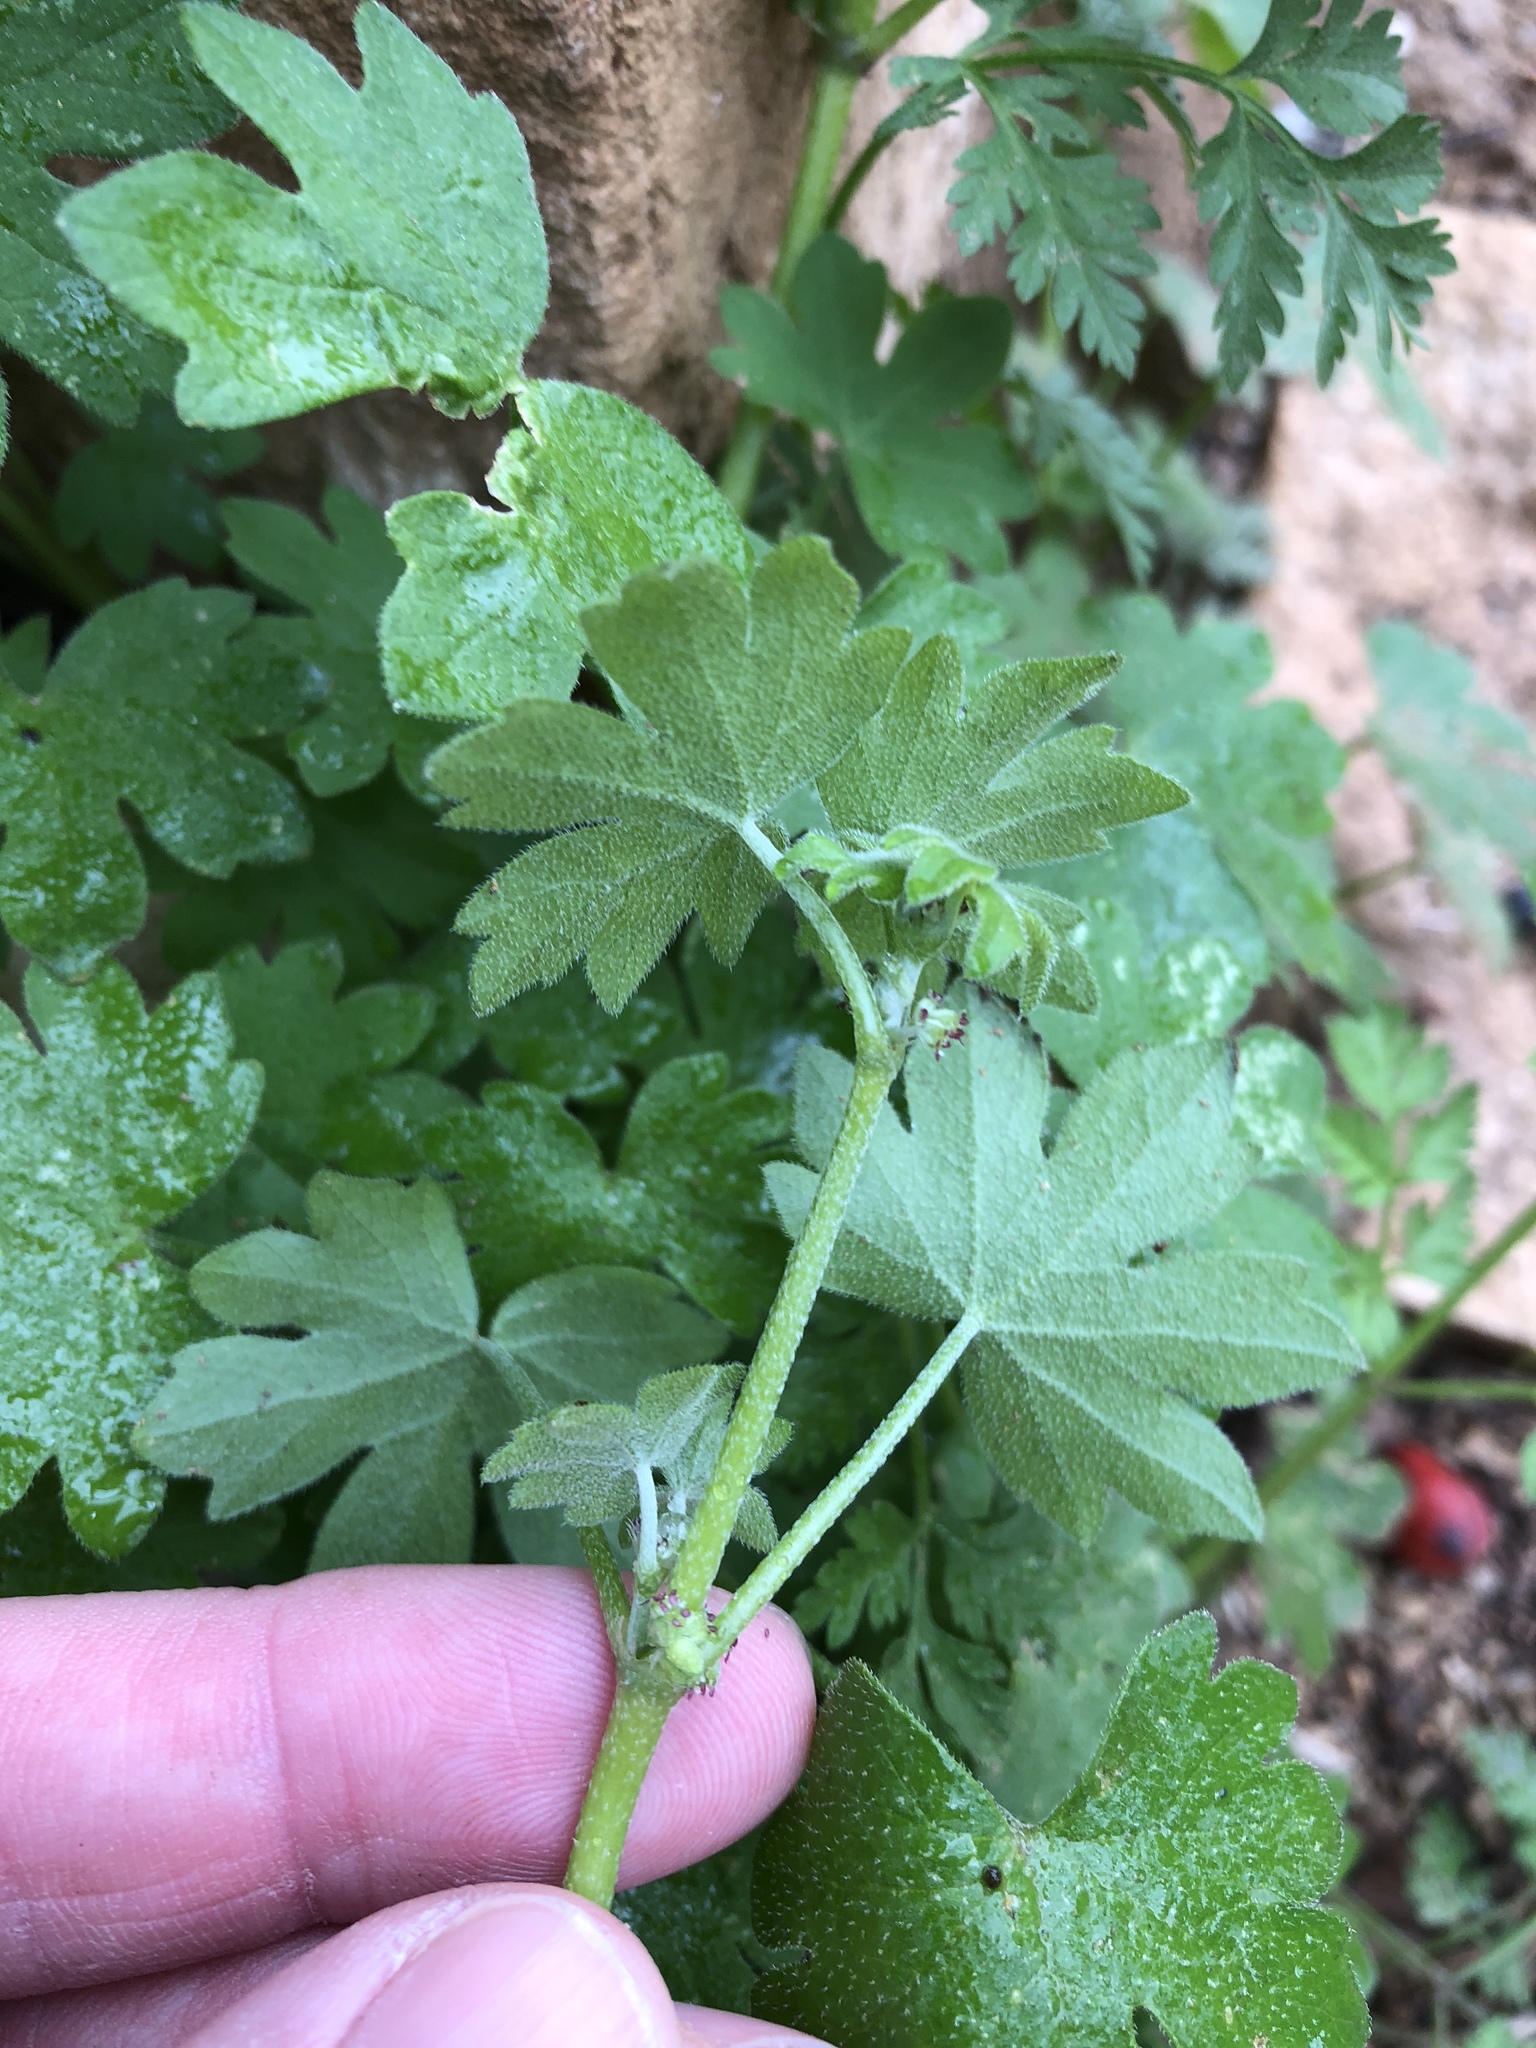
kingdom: Plantae
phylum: Tracheophyta
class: Magnoliopsida
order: Apiales
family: Apiaceae
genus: Bowlesia
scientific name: Bowlesia incana
